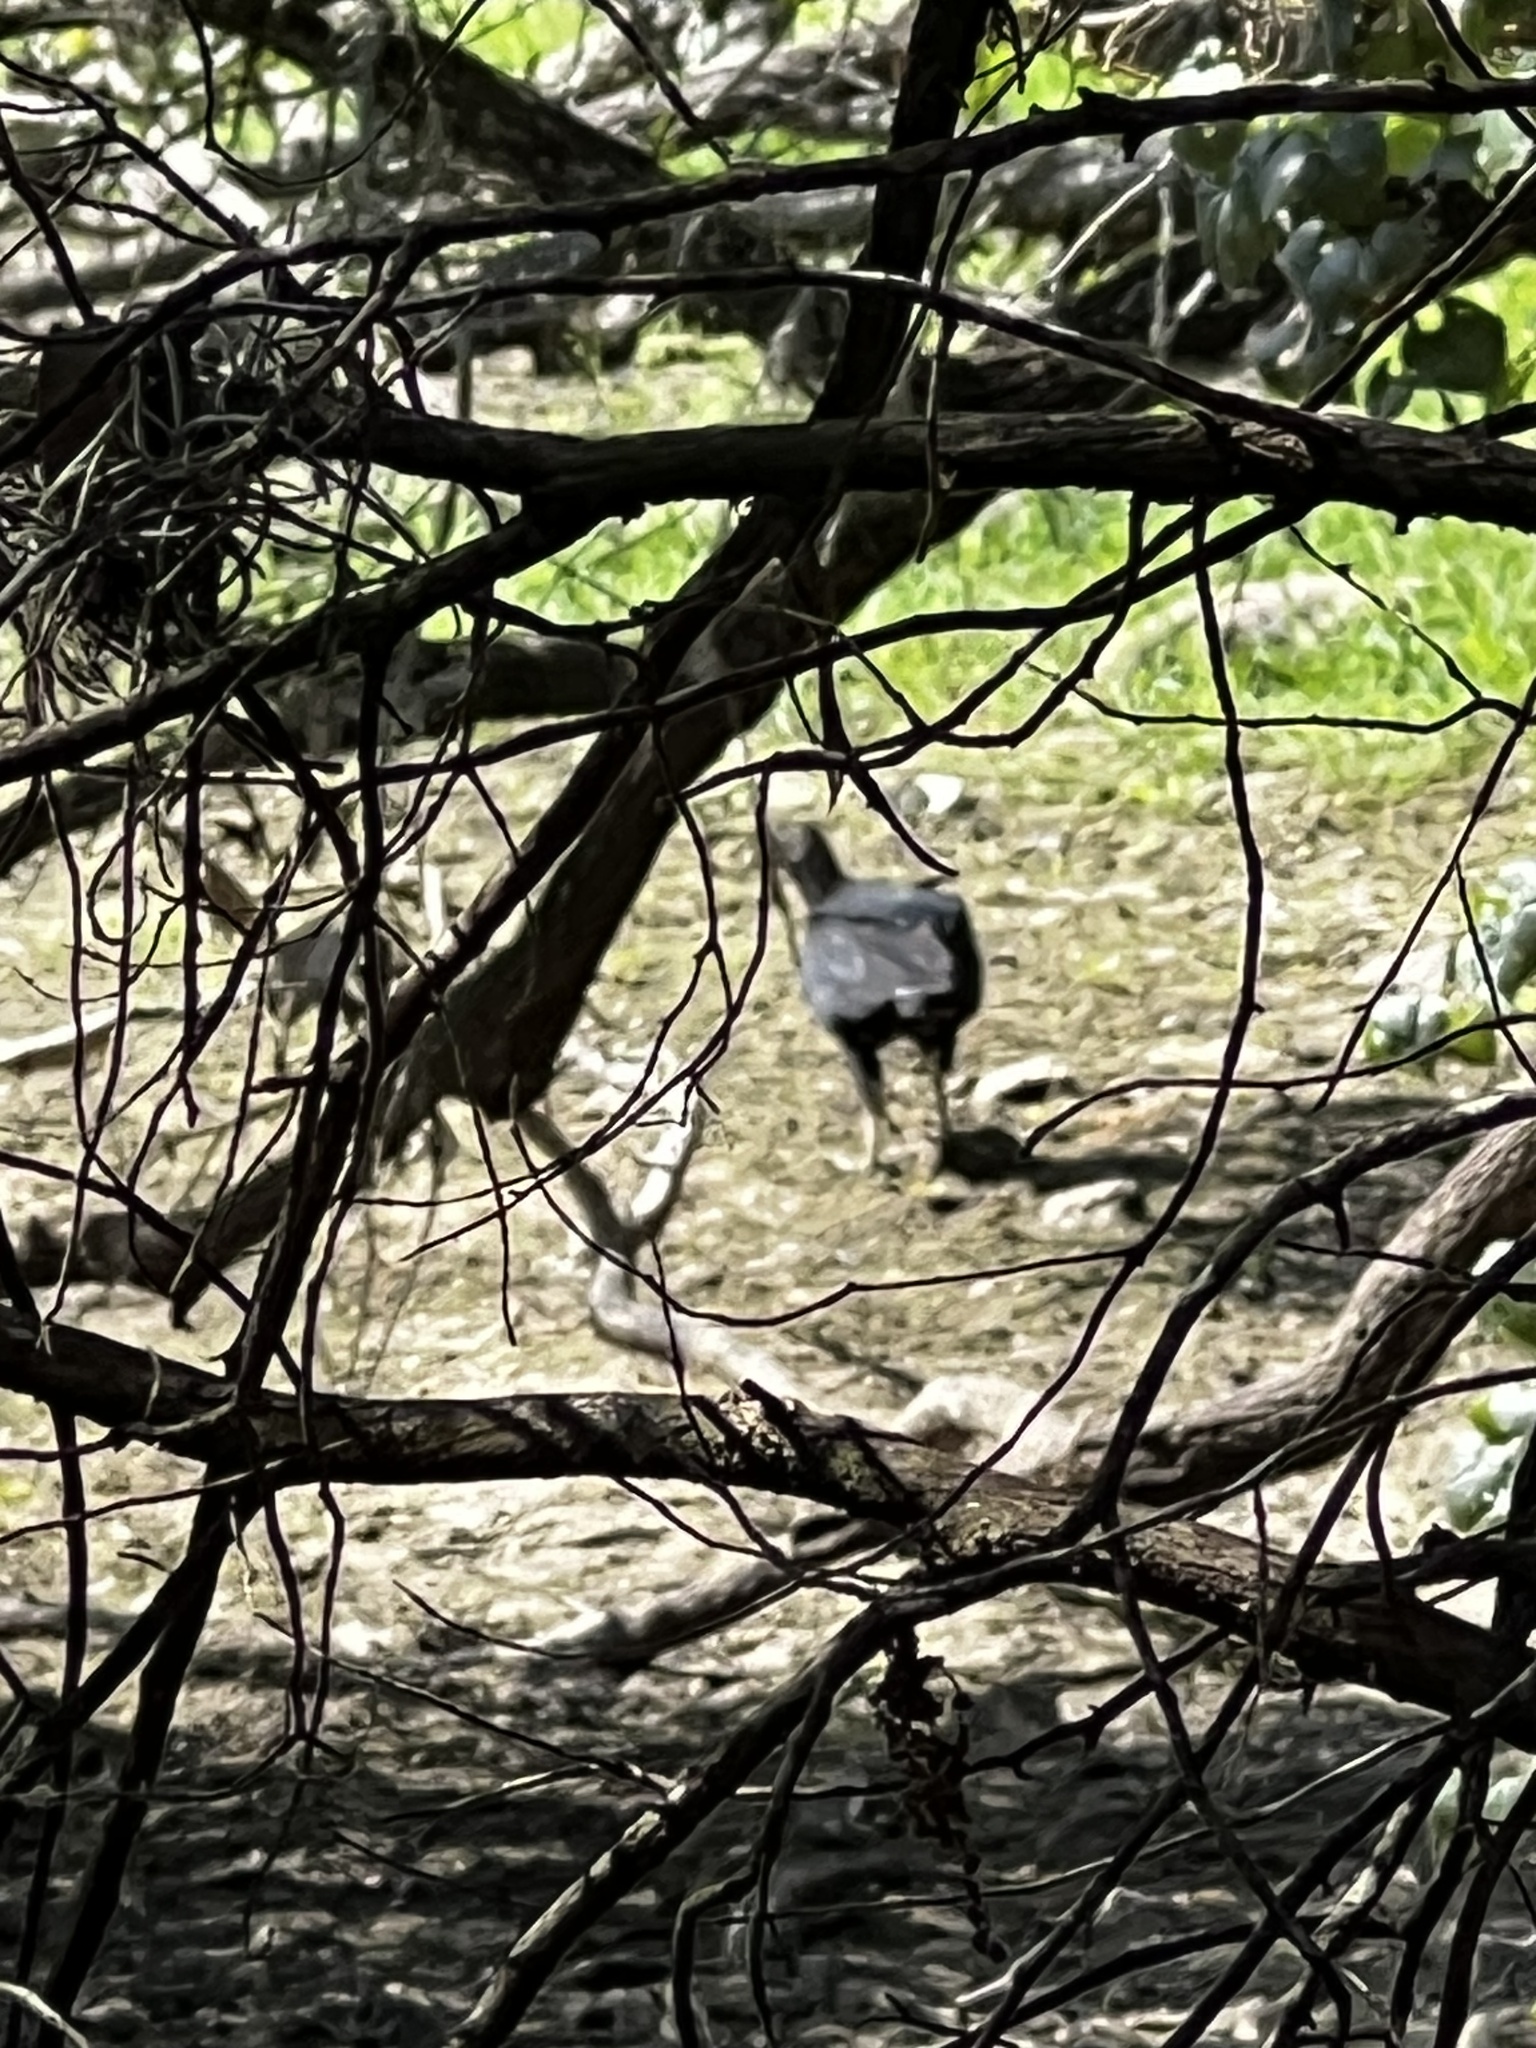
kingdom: Animalia
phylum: Chordata
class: Aves
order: Accipitriformes
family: Cathartidae
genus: Coragyps
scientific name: Coragyps atratus
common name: Black vulture
